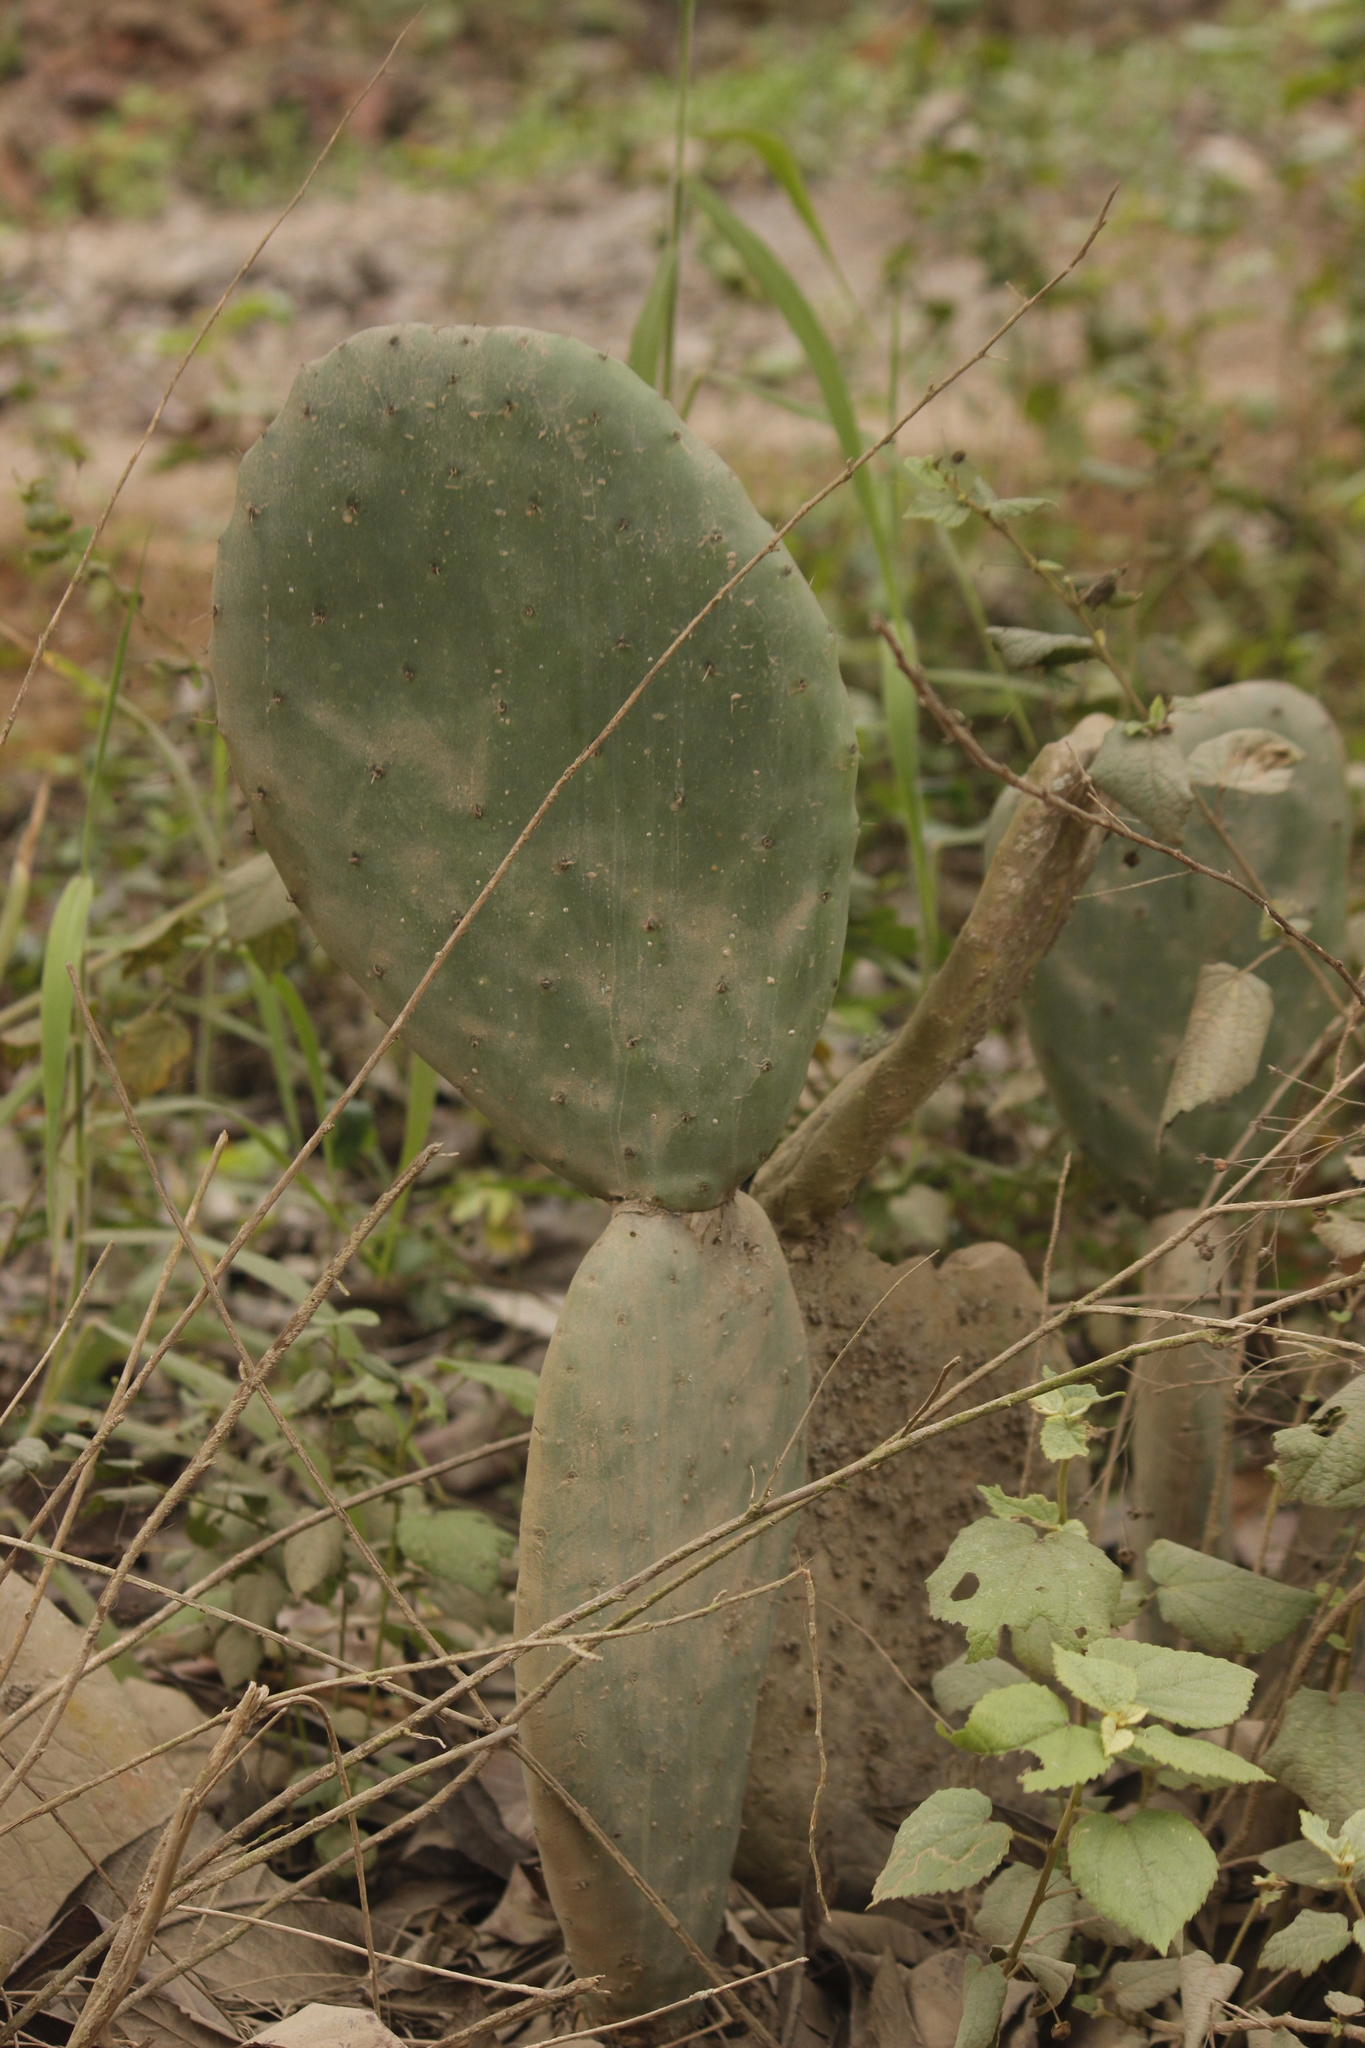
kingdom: Plantae
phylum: Tracheophyta
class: Magnoliopsida
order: Caryophyllales
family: Cactaceae
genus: Opuntia
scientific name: Opuntia ficus-indica
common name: Barbary fig
